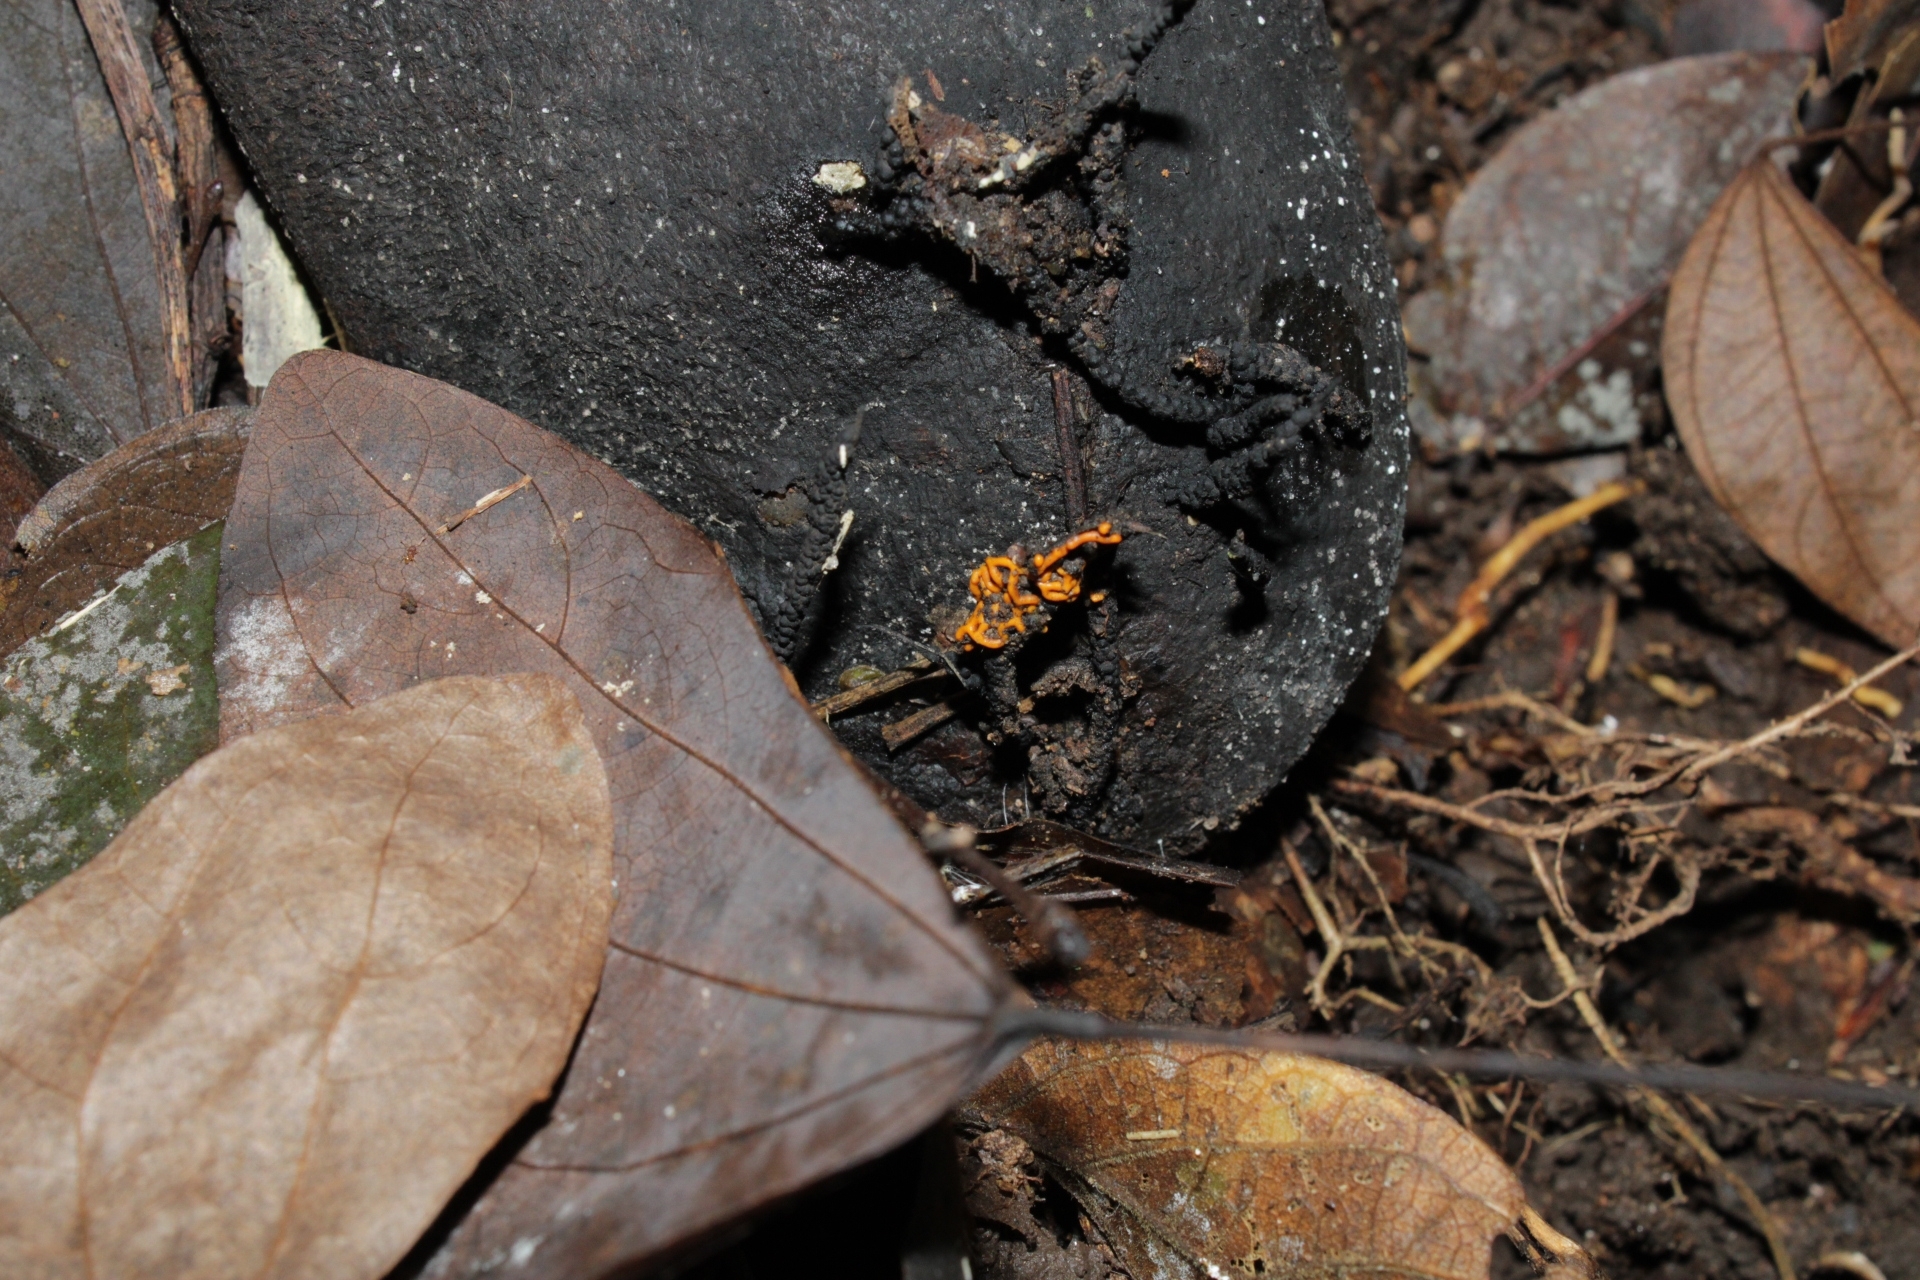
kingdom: Protozoa
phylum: Mycetozoa
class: Myxomycetes
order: Trichiales
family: Arcyriaceae
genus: Hemitrichia
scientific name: Hemitrichia serpula
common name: Pretzel slime mold
